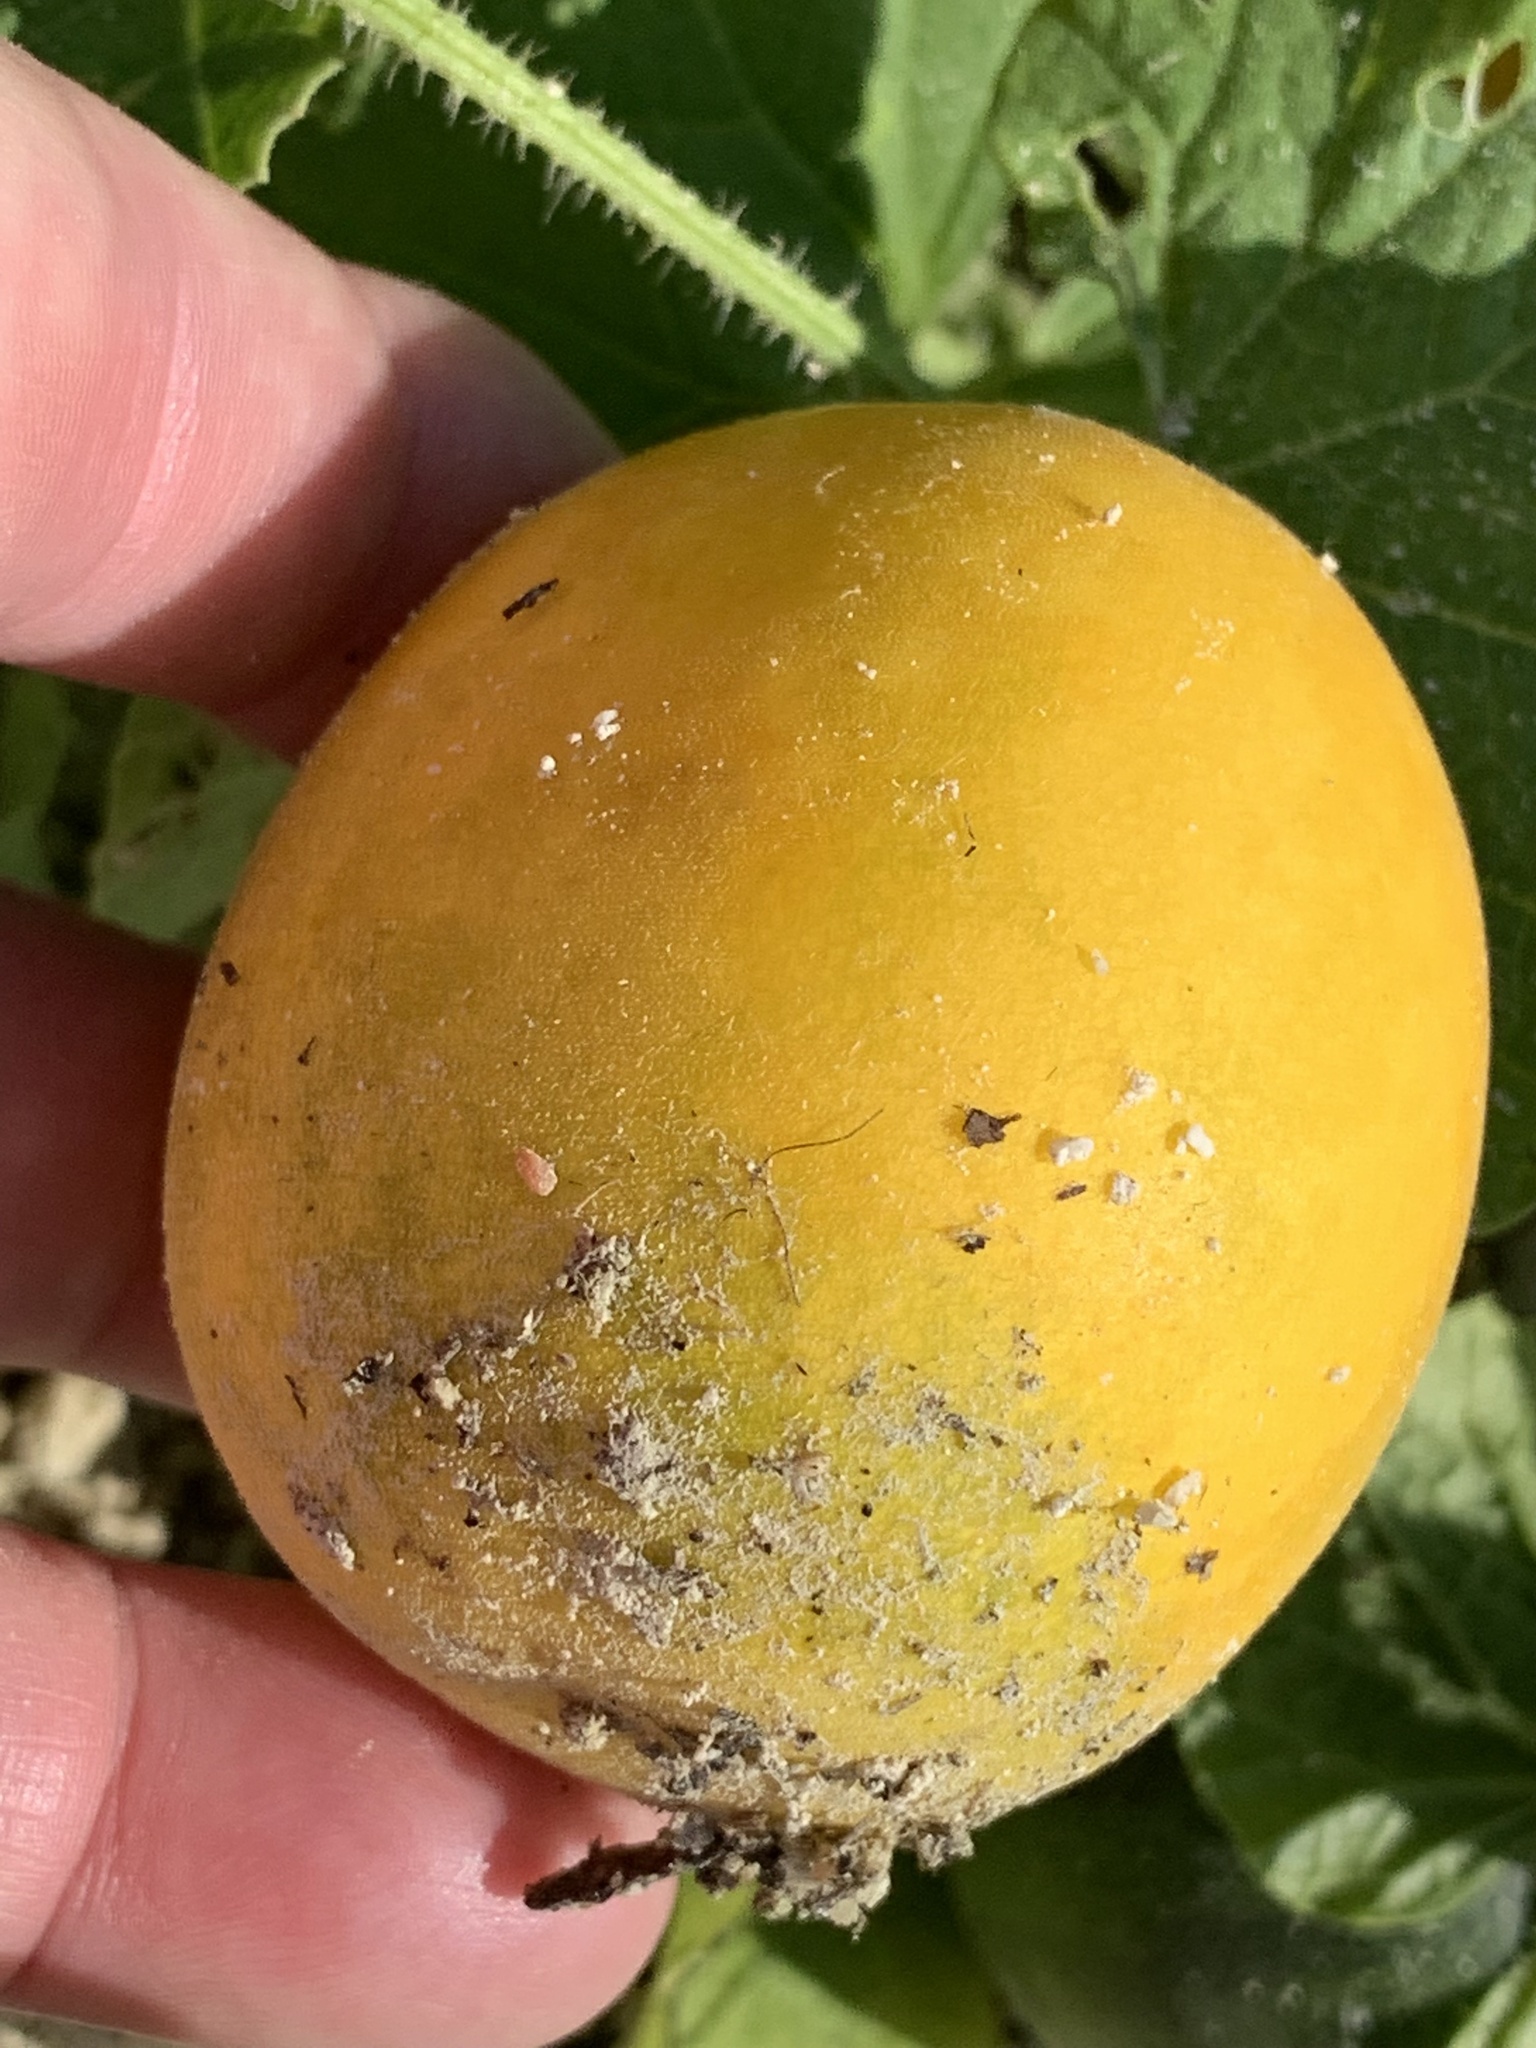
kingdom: Plantae
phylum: Tracheophyta
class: Magnoliopsida
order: Cucurbitales
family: Cucurbitaceae
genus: Cucumis
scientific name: Cucumis melo
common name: Melon
